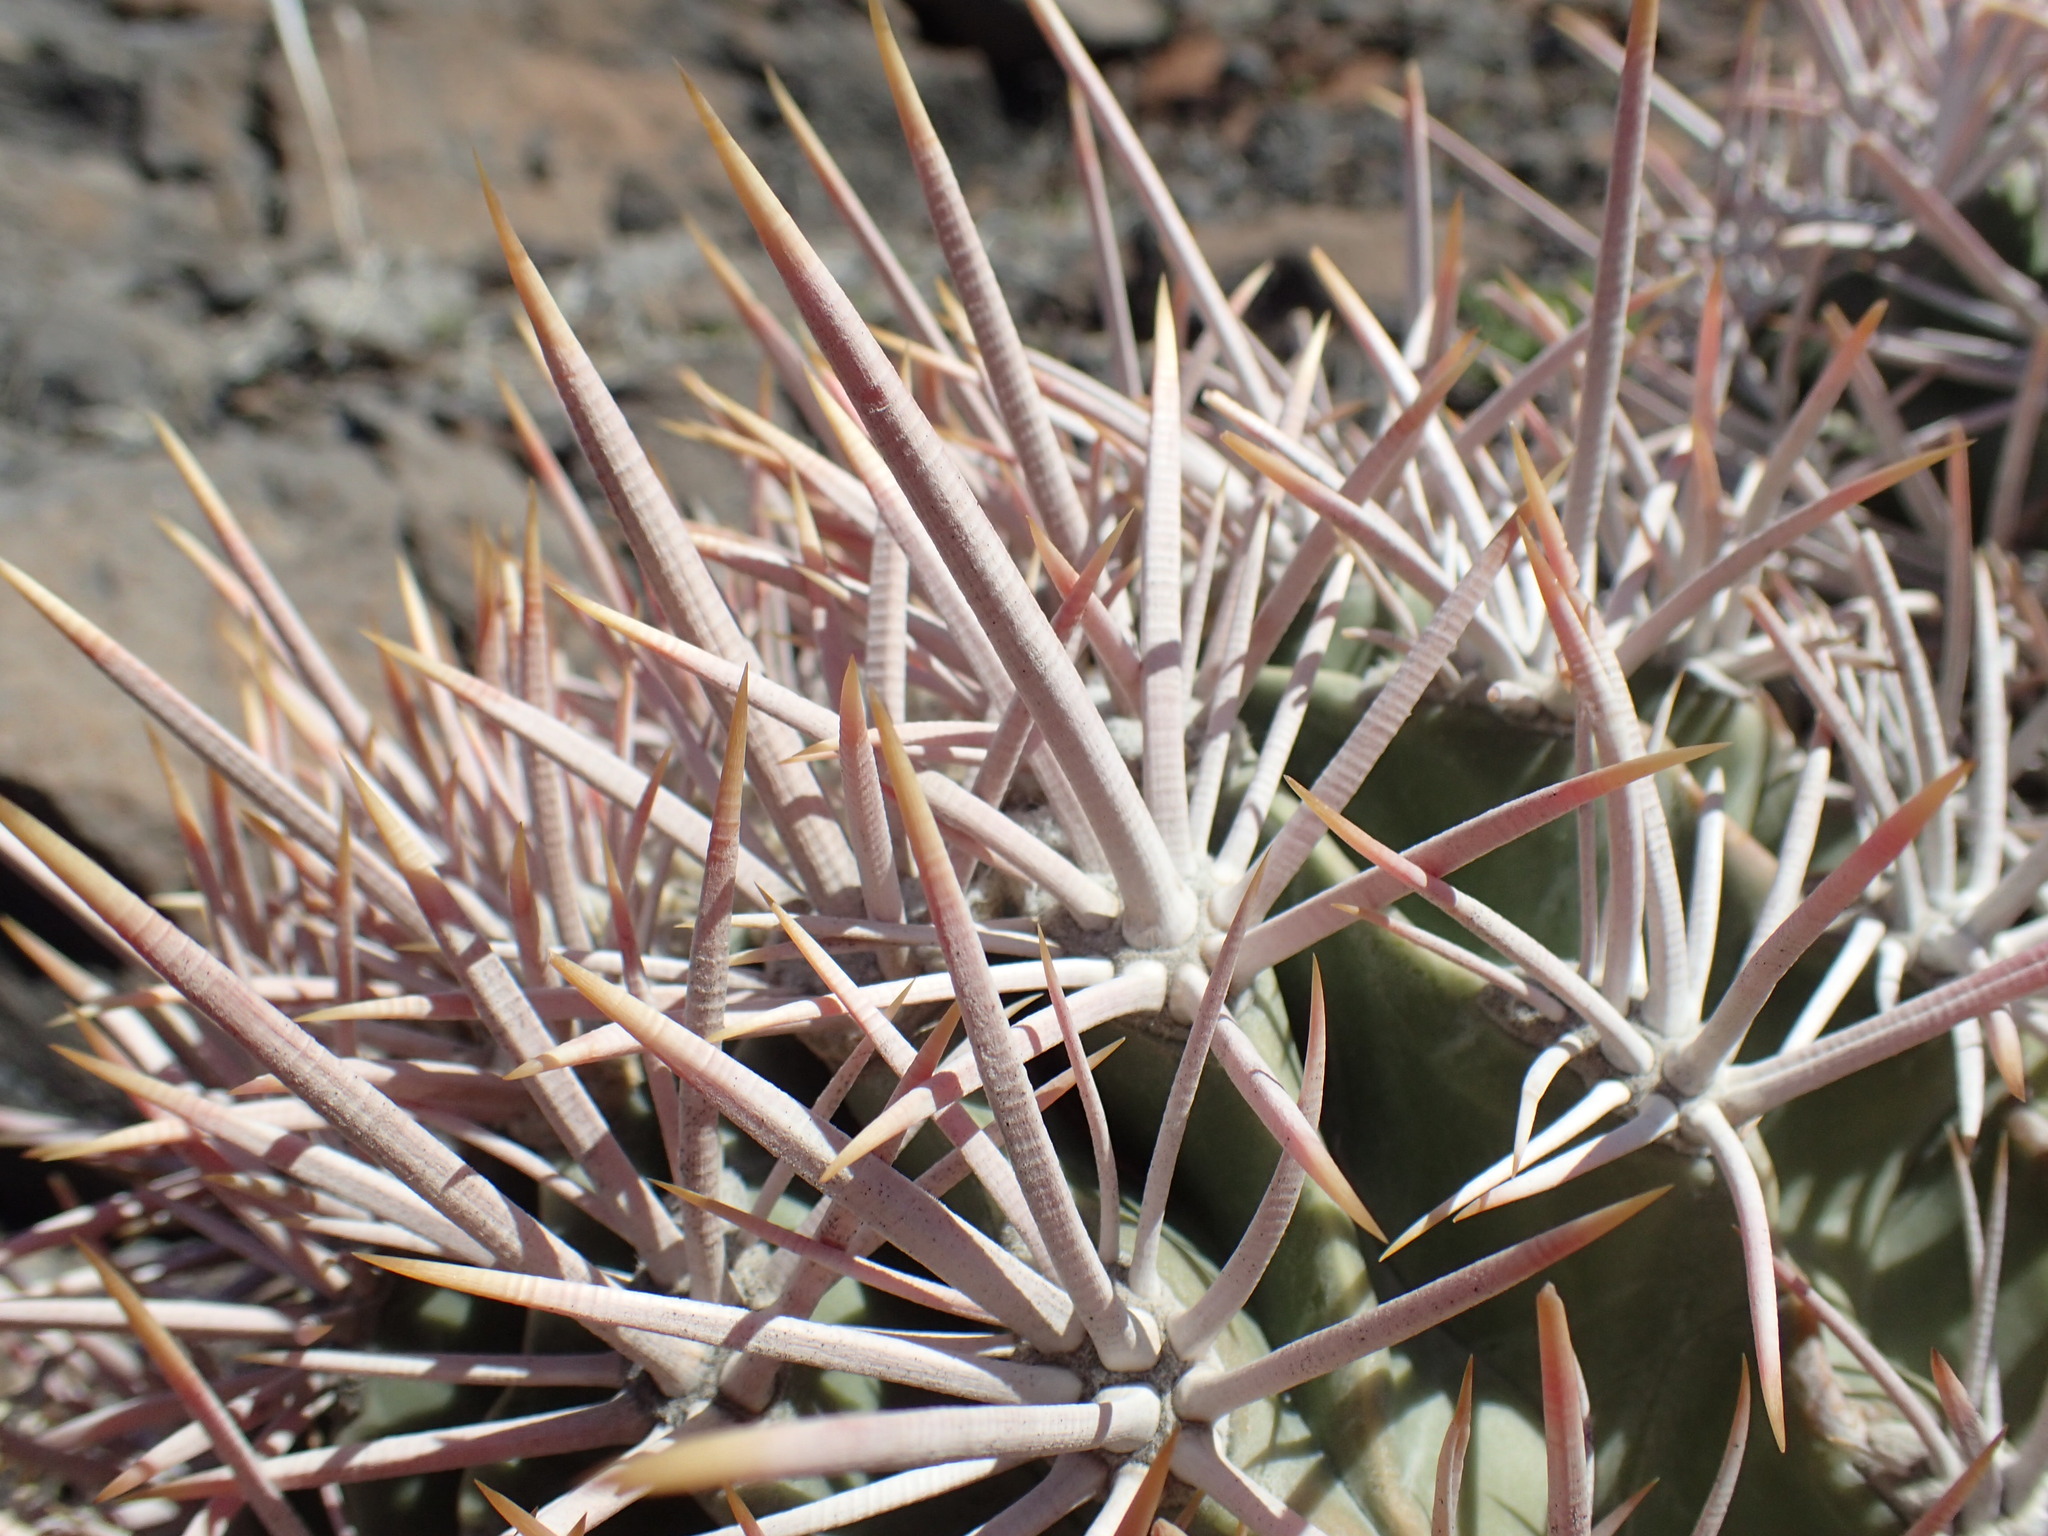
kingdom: Plantae
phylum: Tracheophyta
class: Magnoliopsida
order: Caryophyllales
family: Cactaceae
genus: Echinocactus
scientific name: Echinocactus polycephalus
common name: Cottontop cactus
